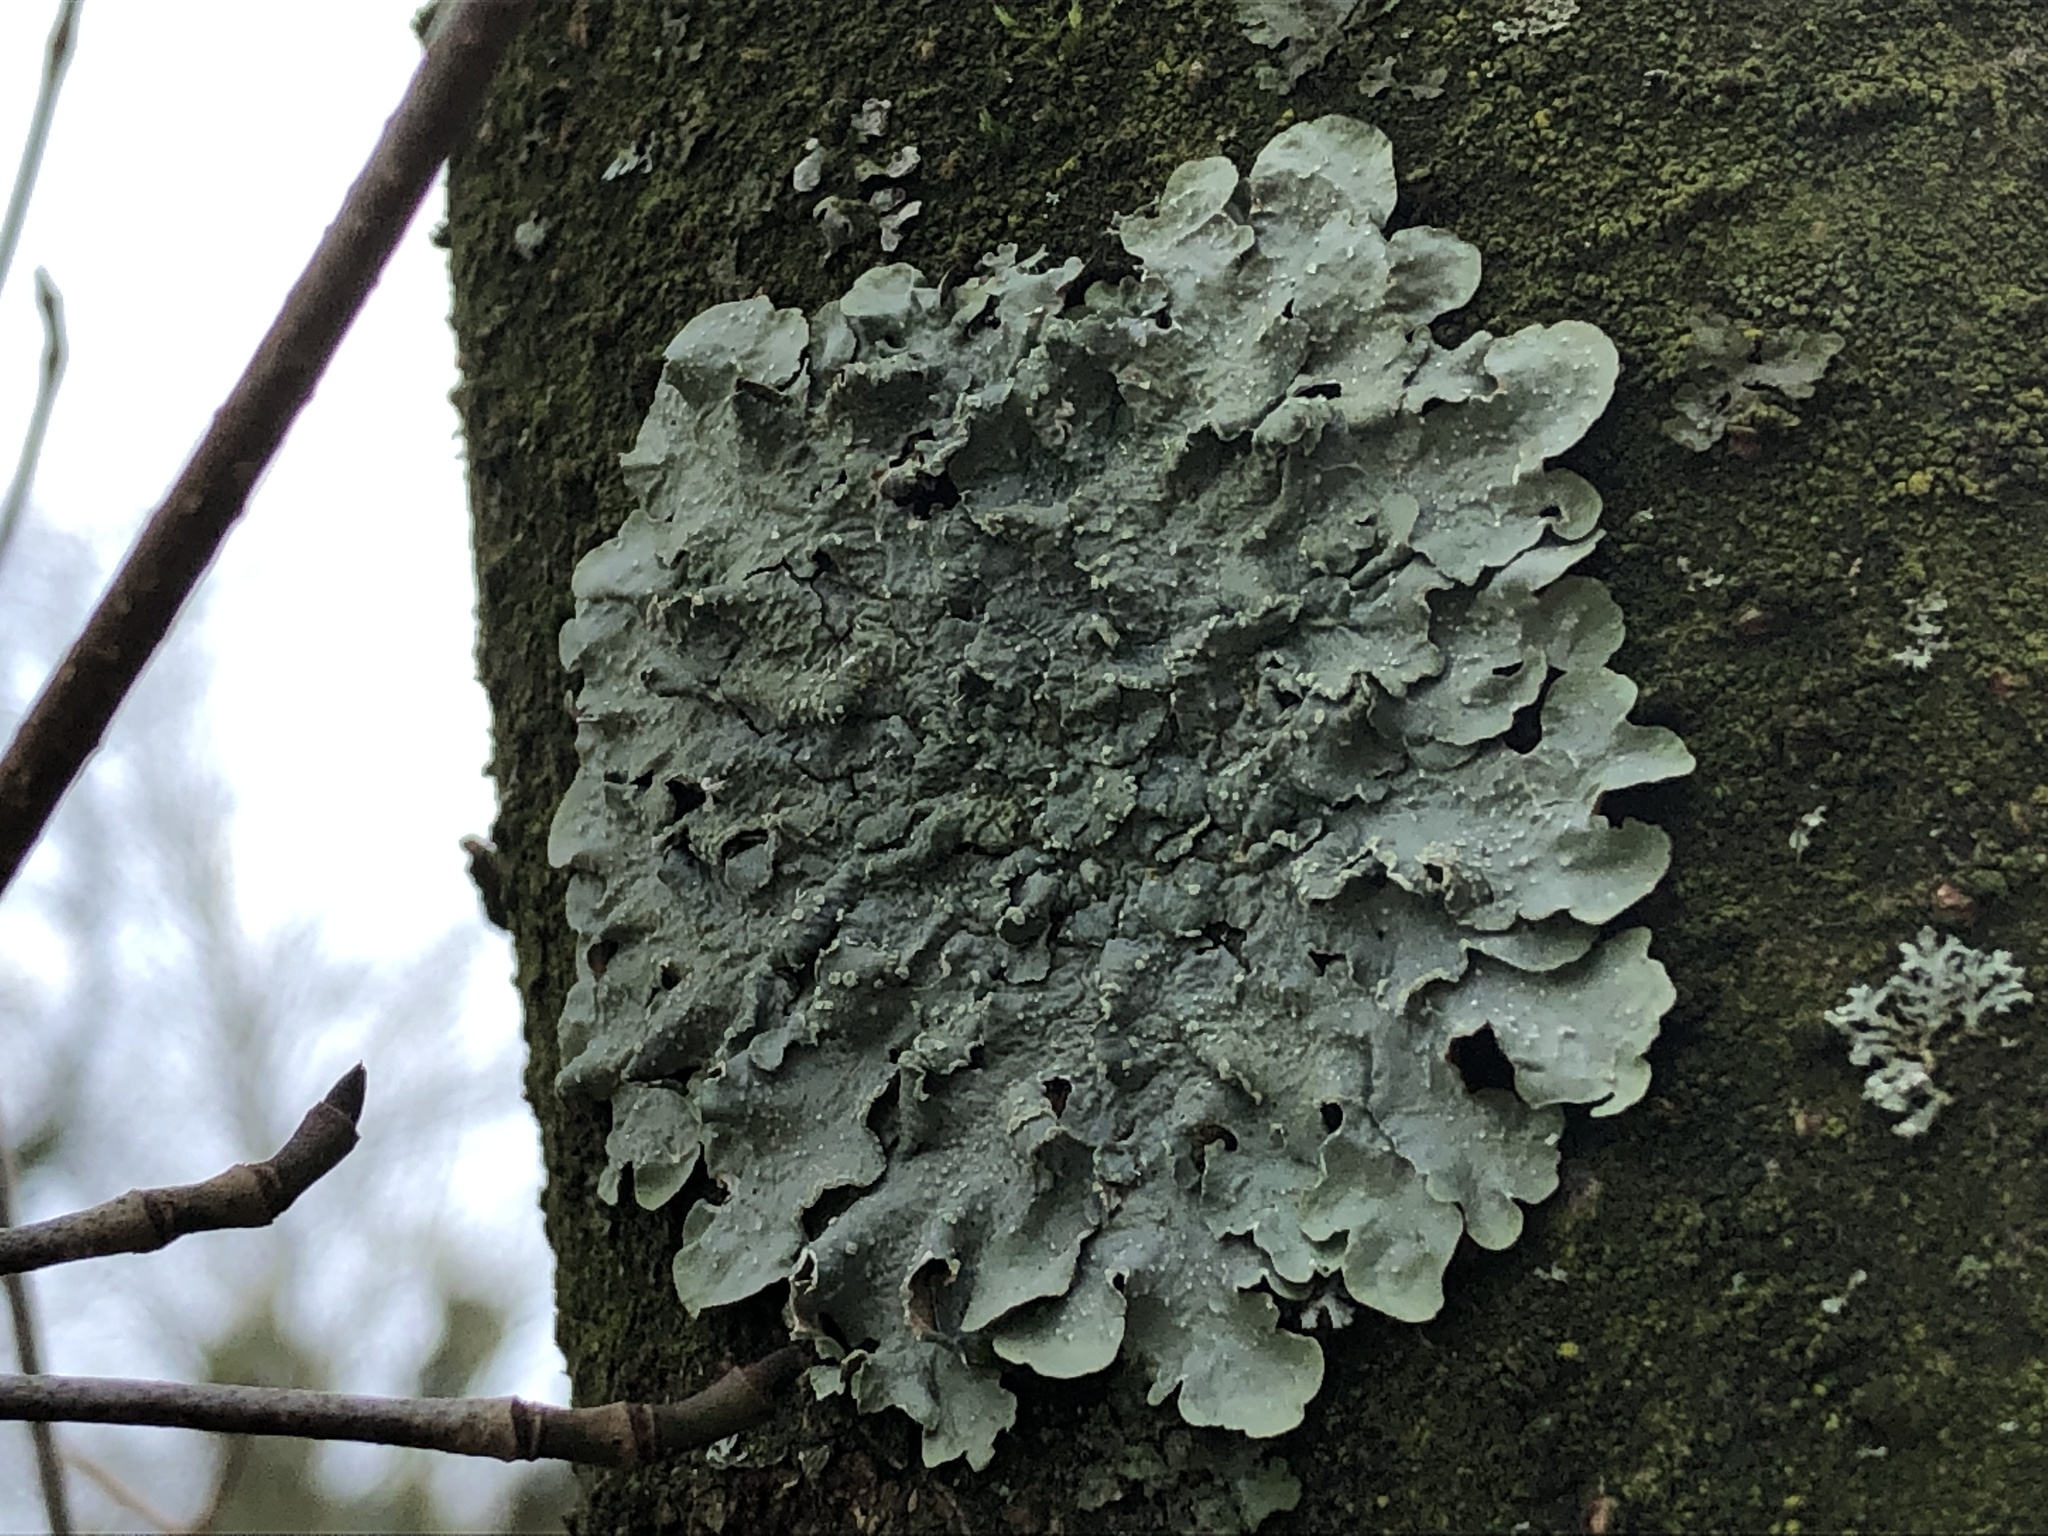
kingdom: Fungi
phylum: Ascomycota
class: Lecanoromycetes
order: Lecanorales
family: Parmeliaceae
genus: Punctelia
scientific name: Punctelia jeckeri
